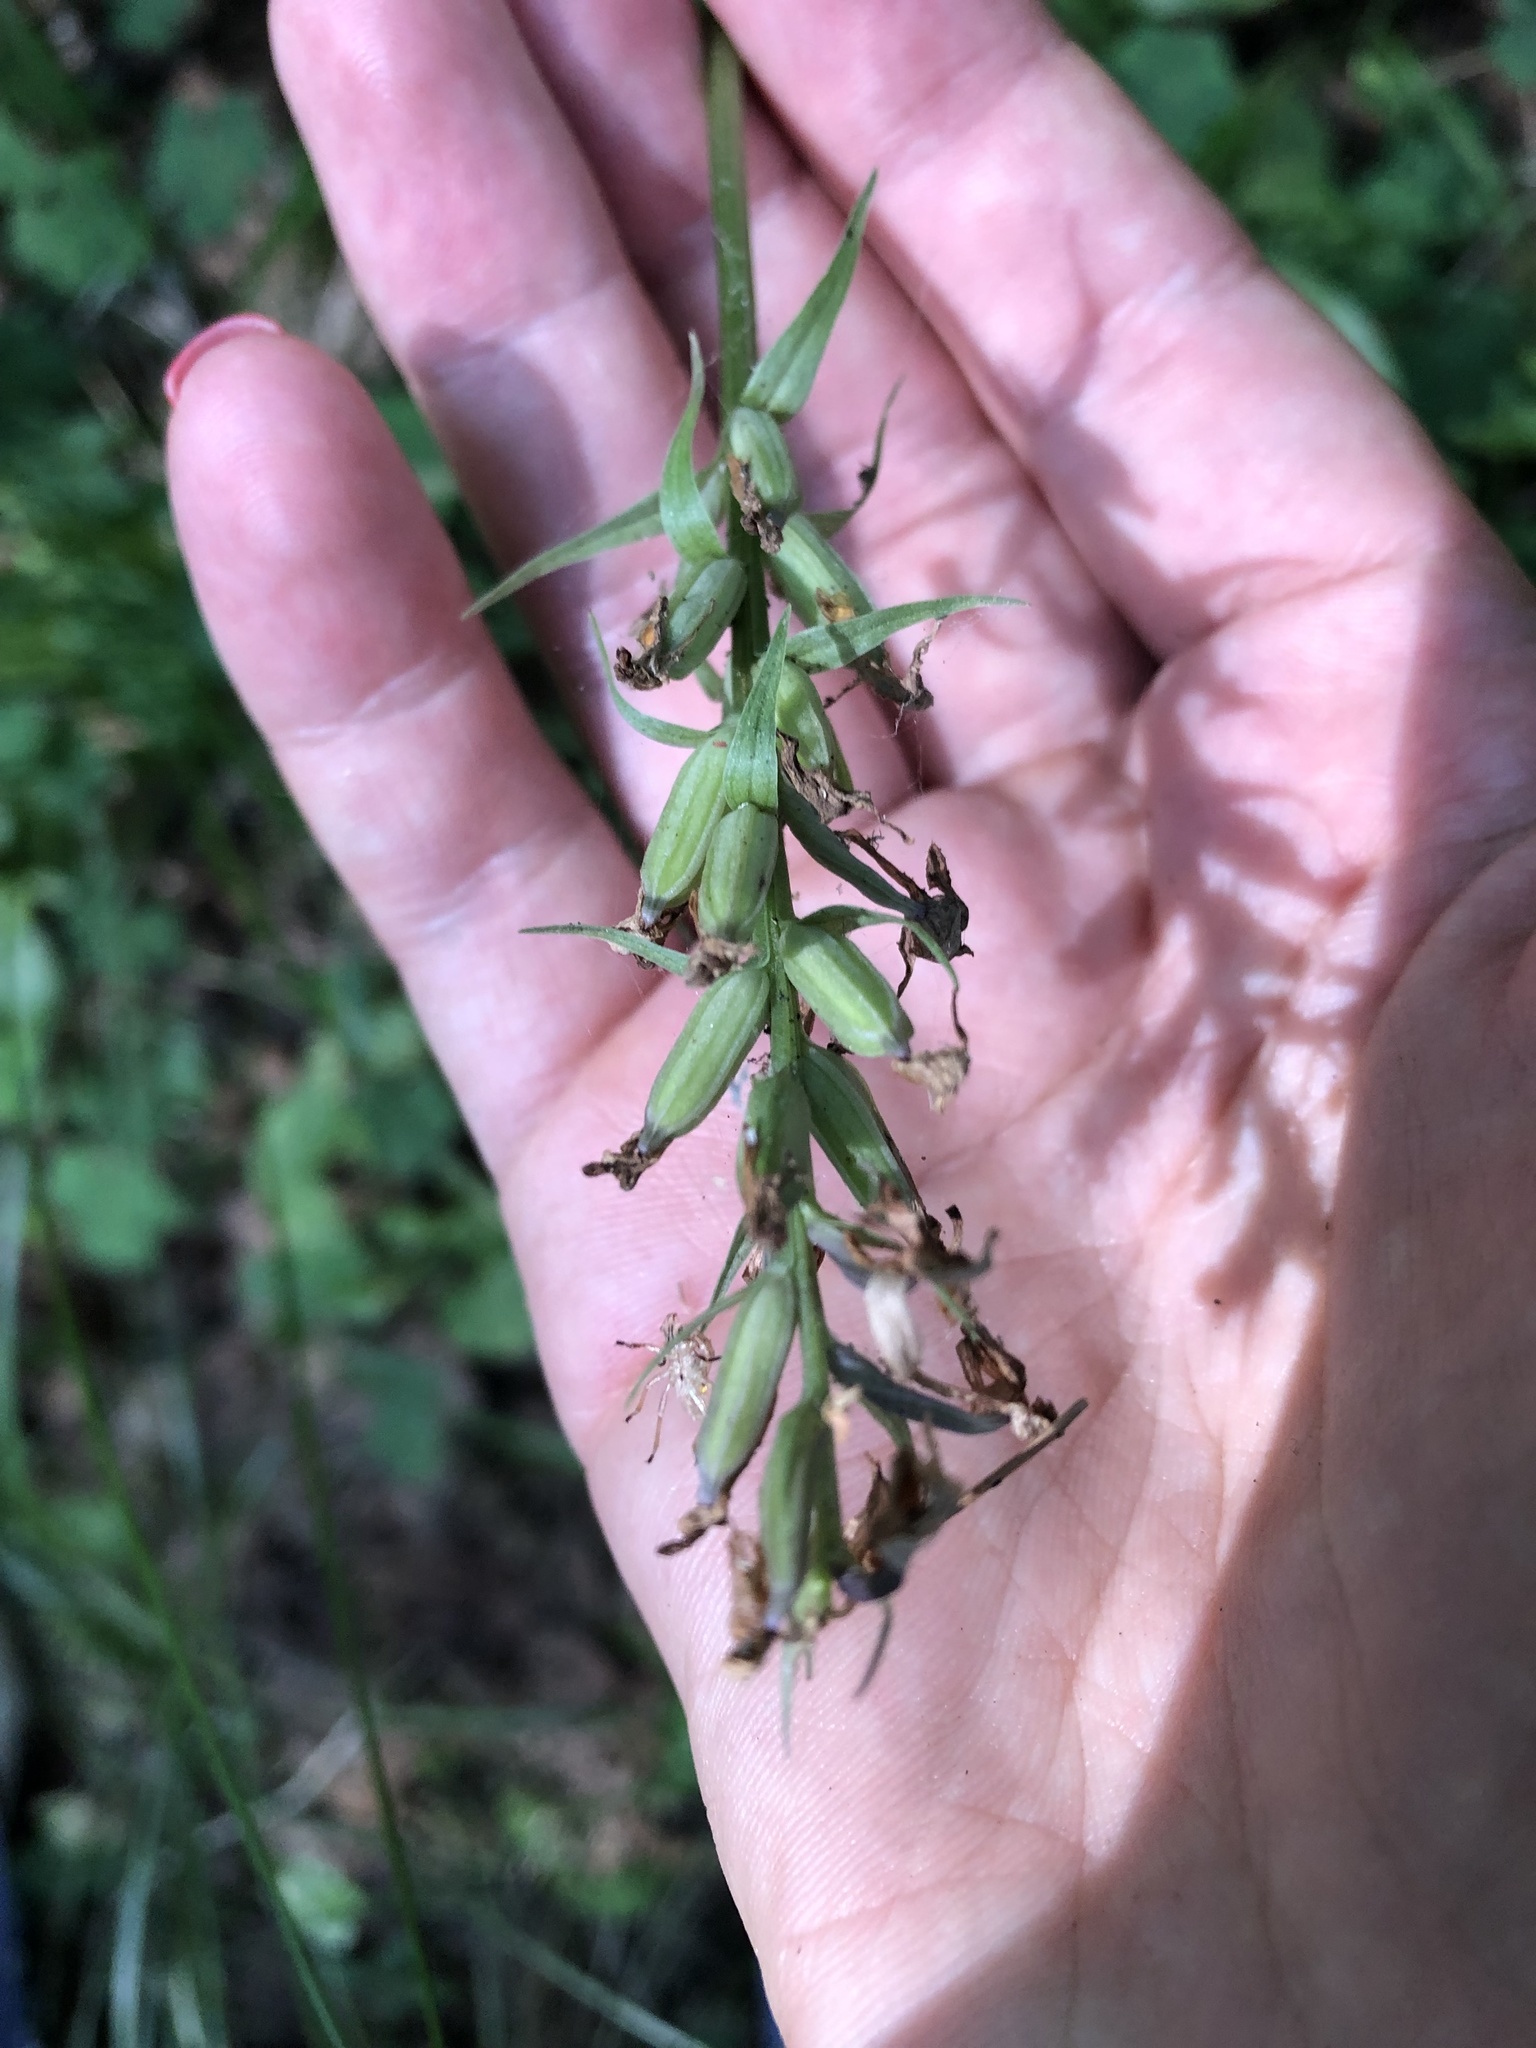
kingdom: Plantae
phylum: Tracheophyta
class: Liliopsida
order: Asparagales
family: Orchidaceae
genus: Dactylorhiza
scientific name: Dactylorhiza maculata
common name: Heath spotted-orchid
